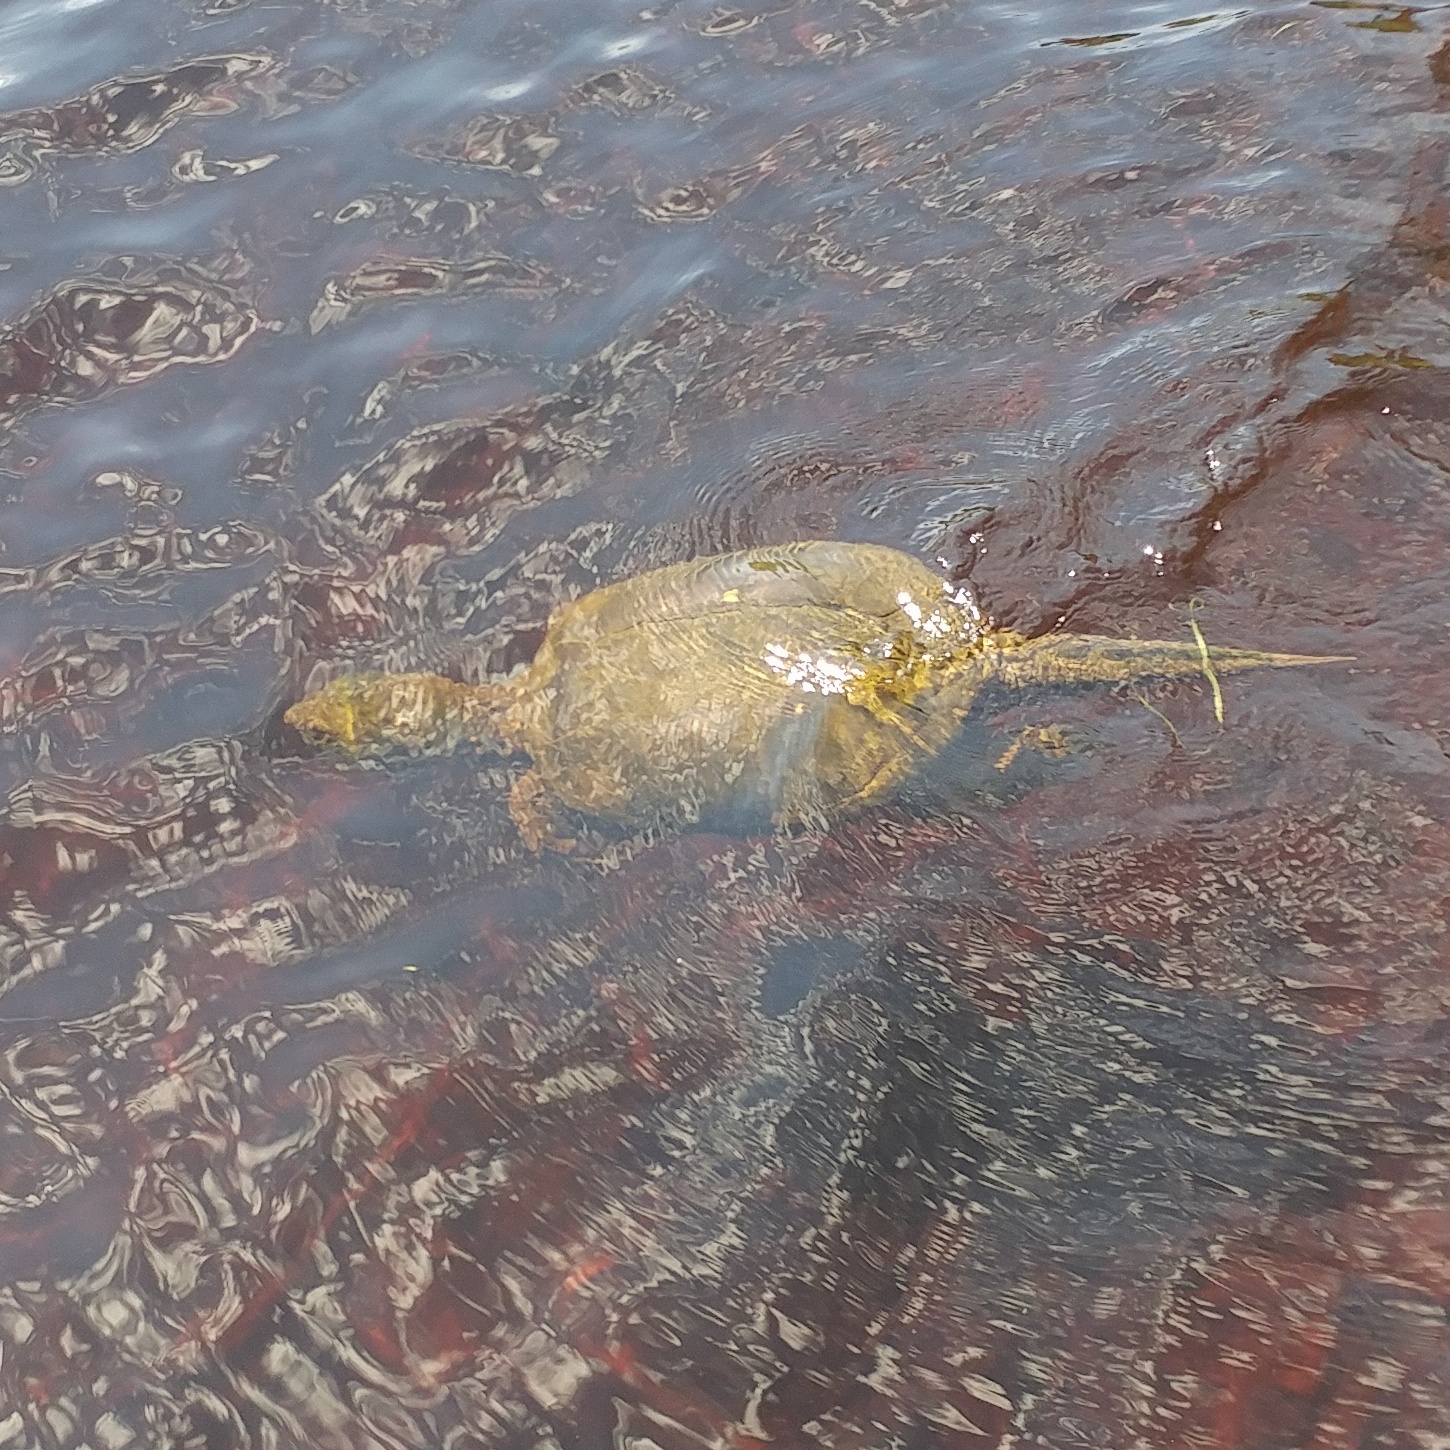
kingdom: Animalia
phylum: Chordata
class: Testudines
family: Chelydridae
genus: Chelydra
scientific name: Chelydra serpentina
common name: Common snapping turtle
